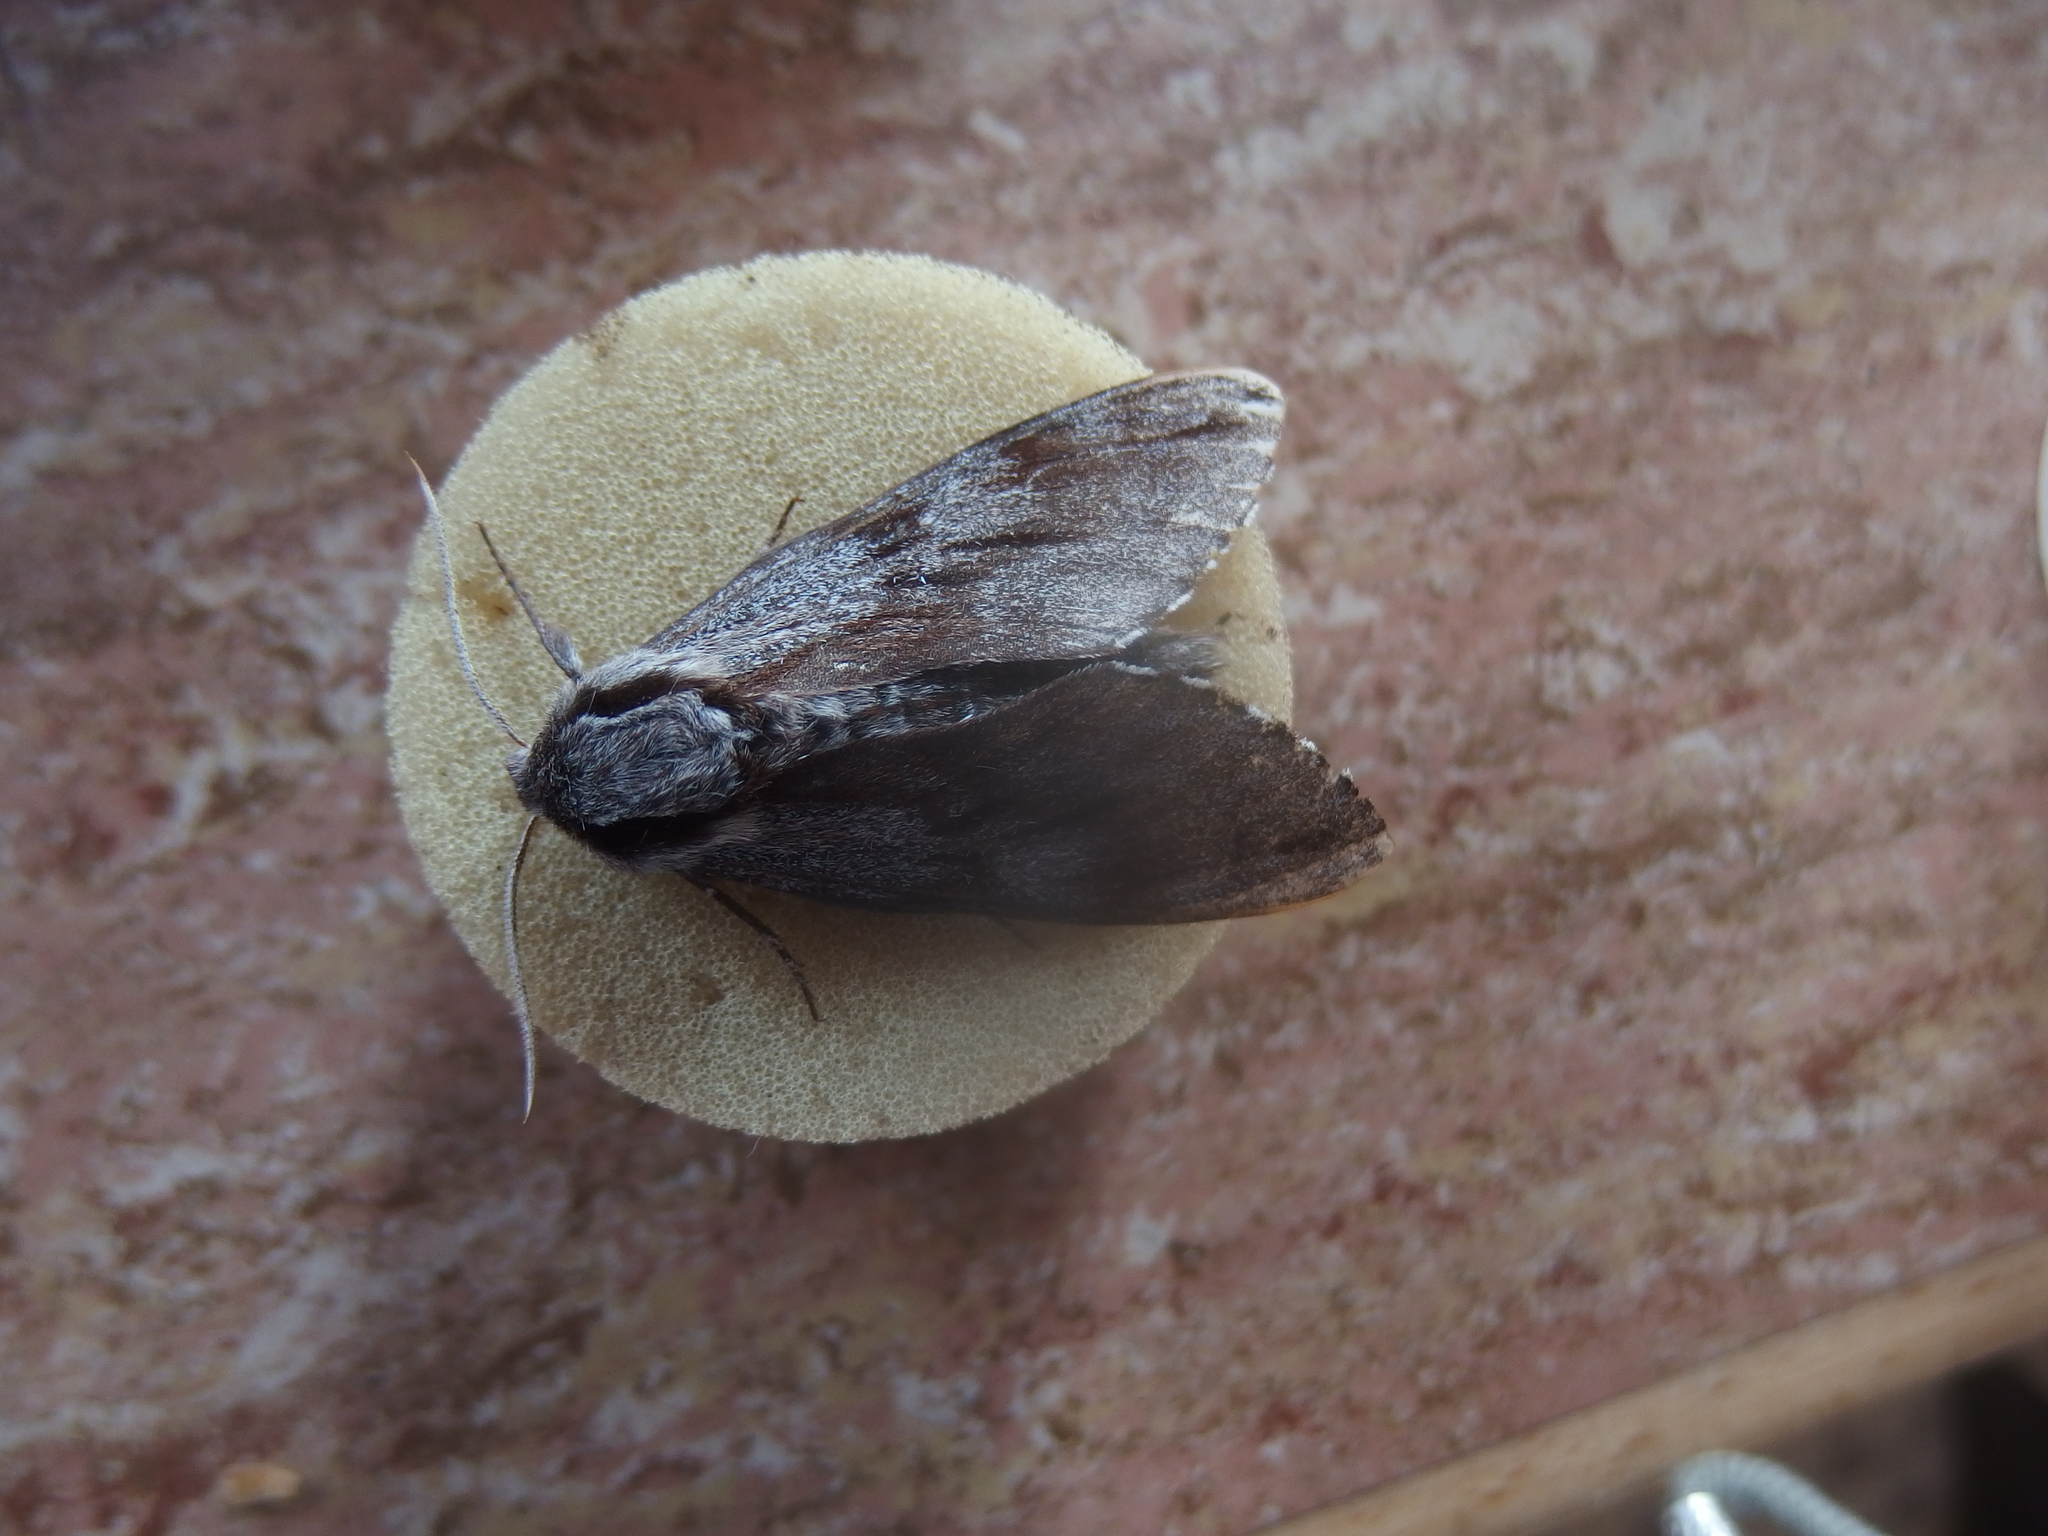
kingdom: Animalia
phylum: Arthropoda
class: Insecta
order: Lepidoptera
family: Sphingidae
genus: Sphinx
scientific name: Sphinx pinastri
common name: Pine hawk-moth
